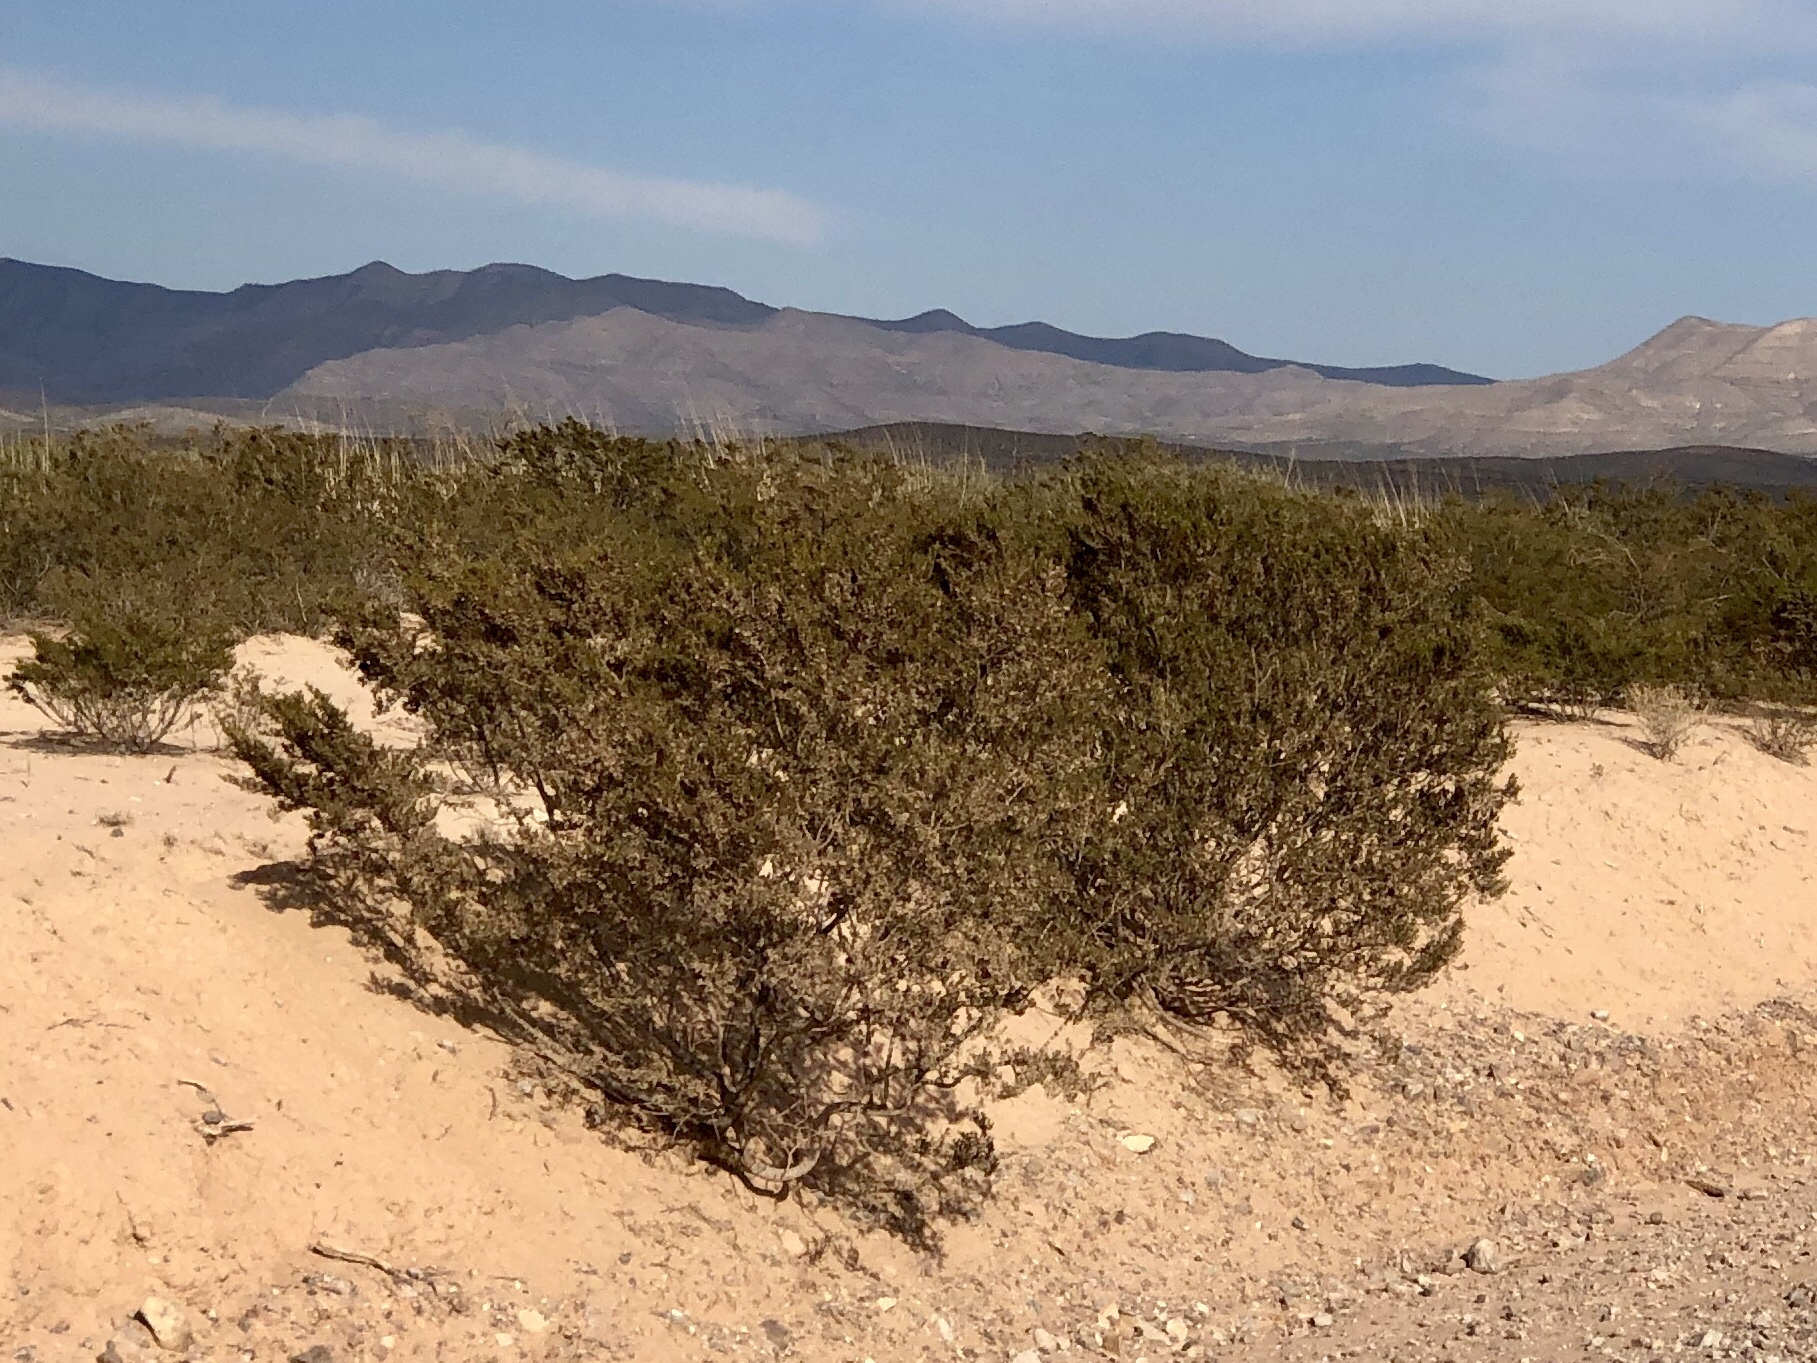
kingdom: Plantae
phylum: Tracheophyta
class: Magnoliopsida
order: Zygophyllales
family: Zygophyllaceae
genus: Larrea
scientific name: Larrea tridentata
